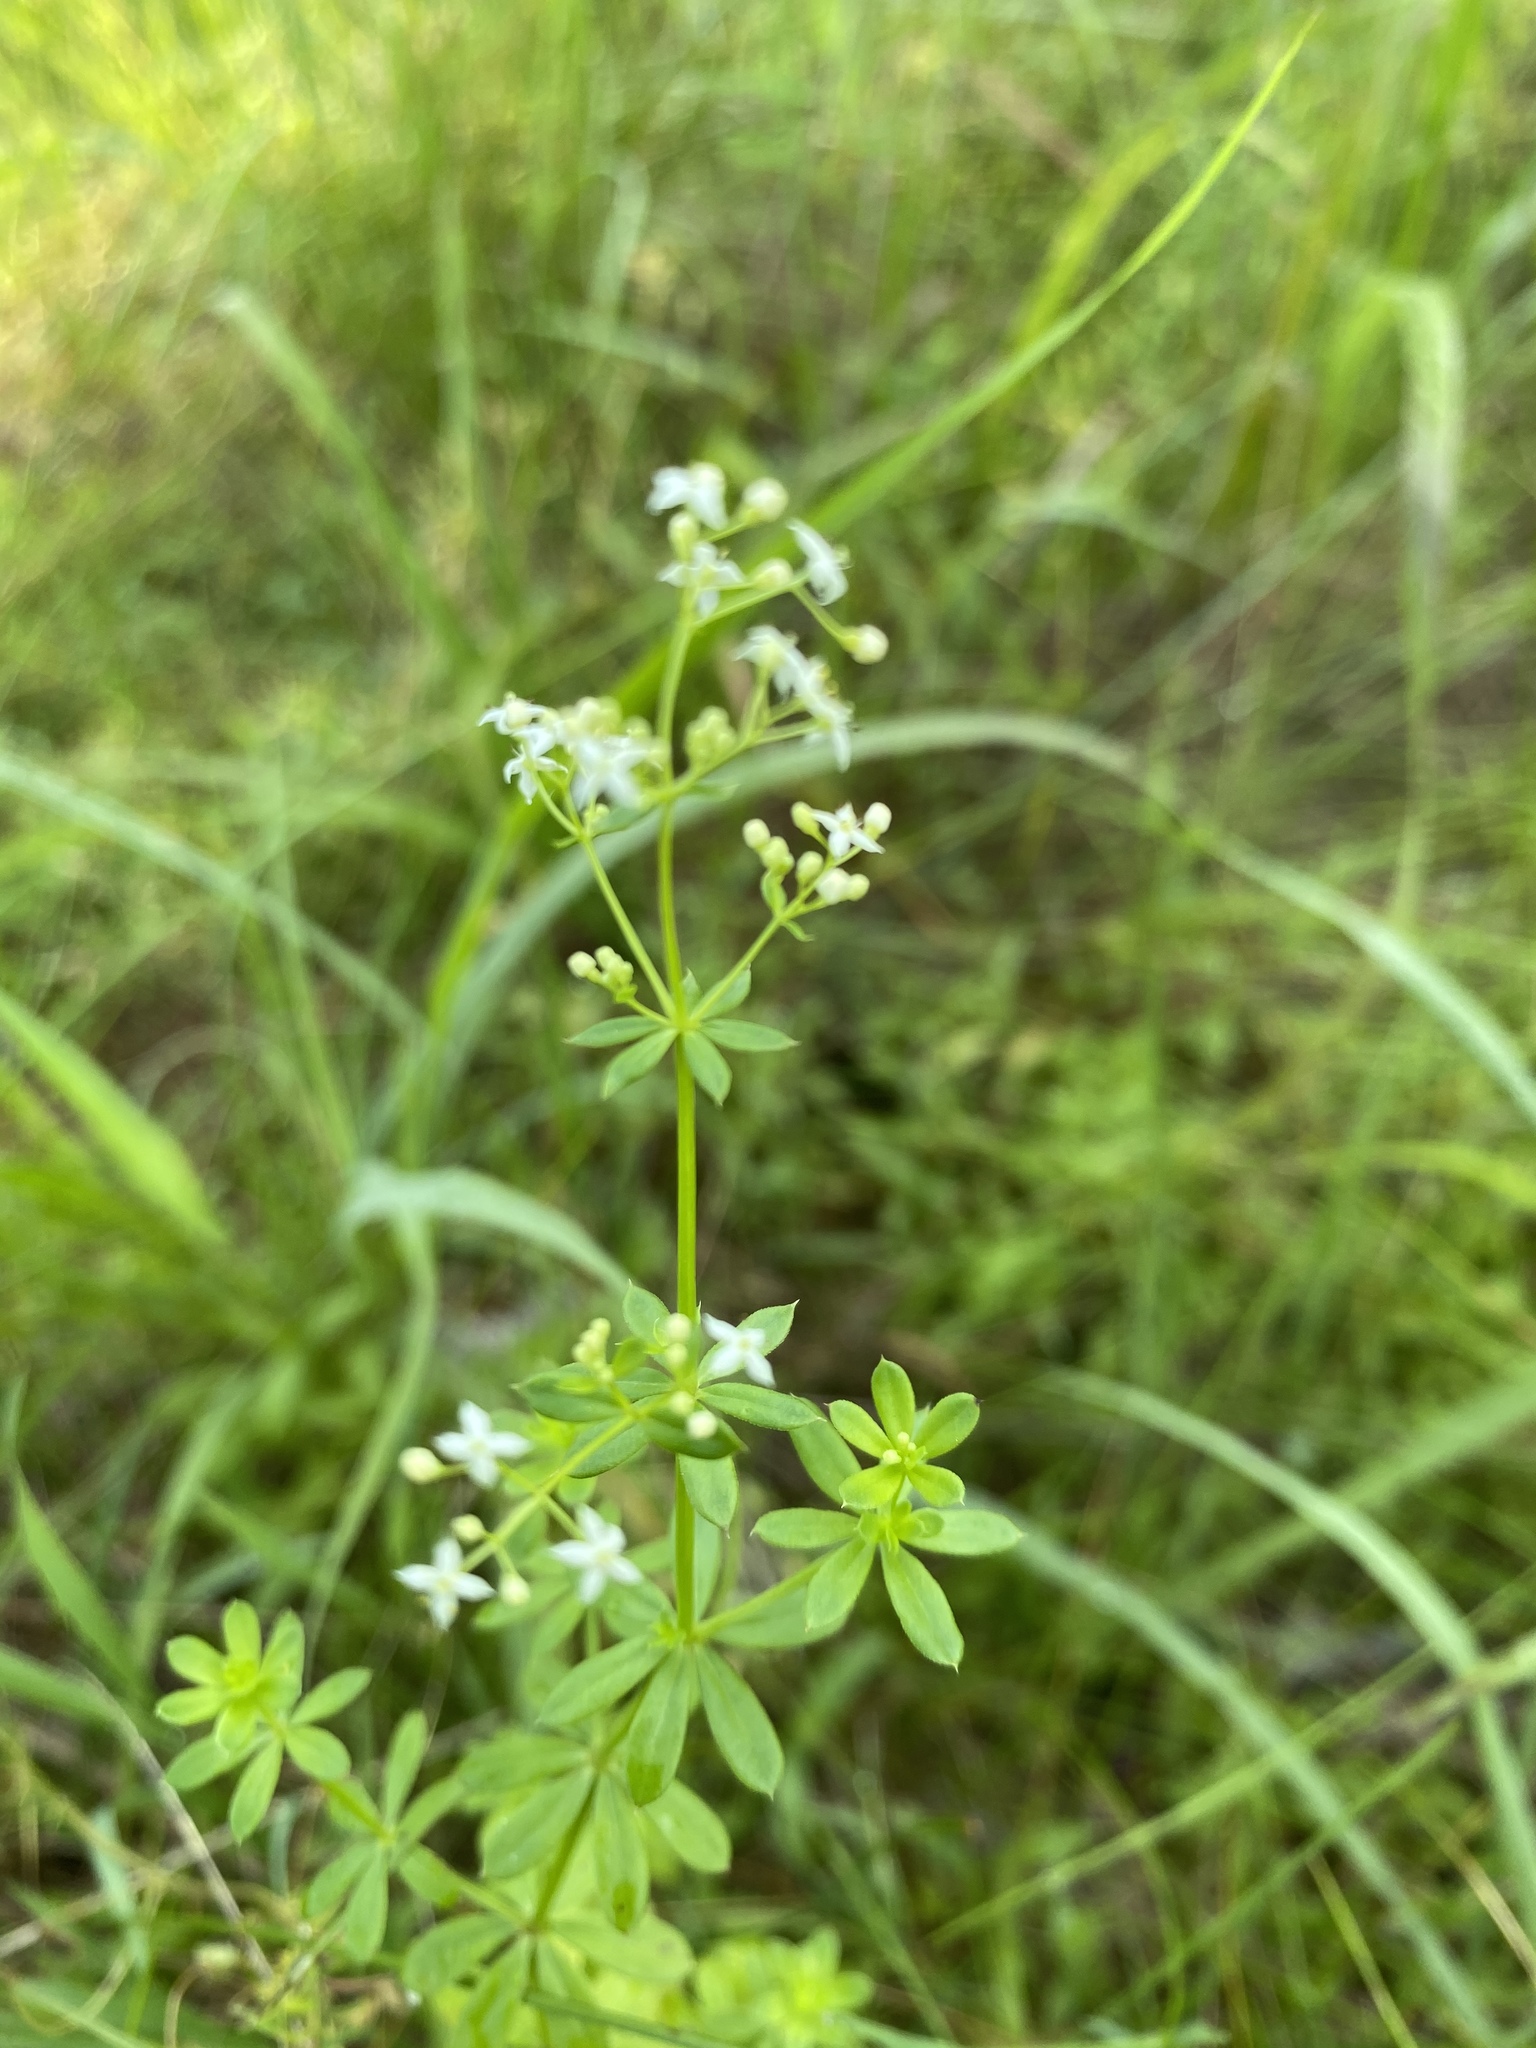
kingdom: Plantae
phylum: Tracheophyta
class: Magnoliopsida
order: Gentianales
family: Rubiaceae
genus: Galium
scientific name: Galium mollugo
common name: Hedge bedstraw
